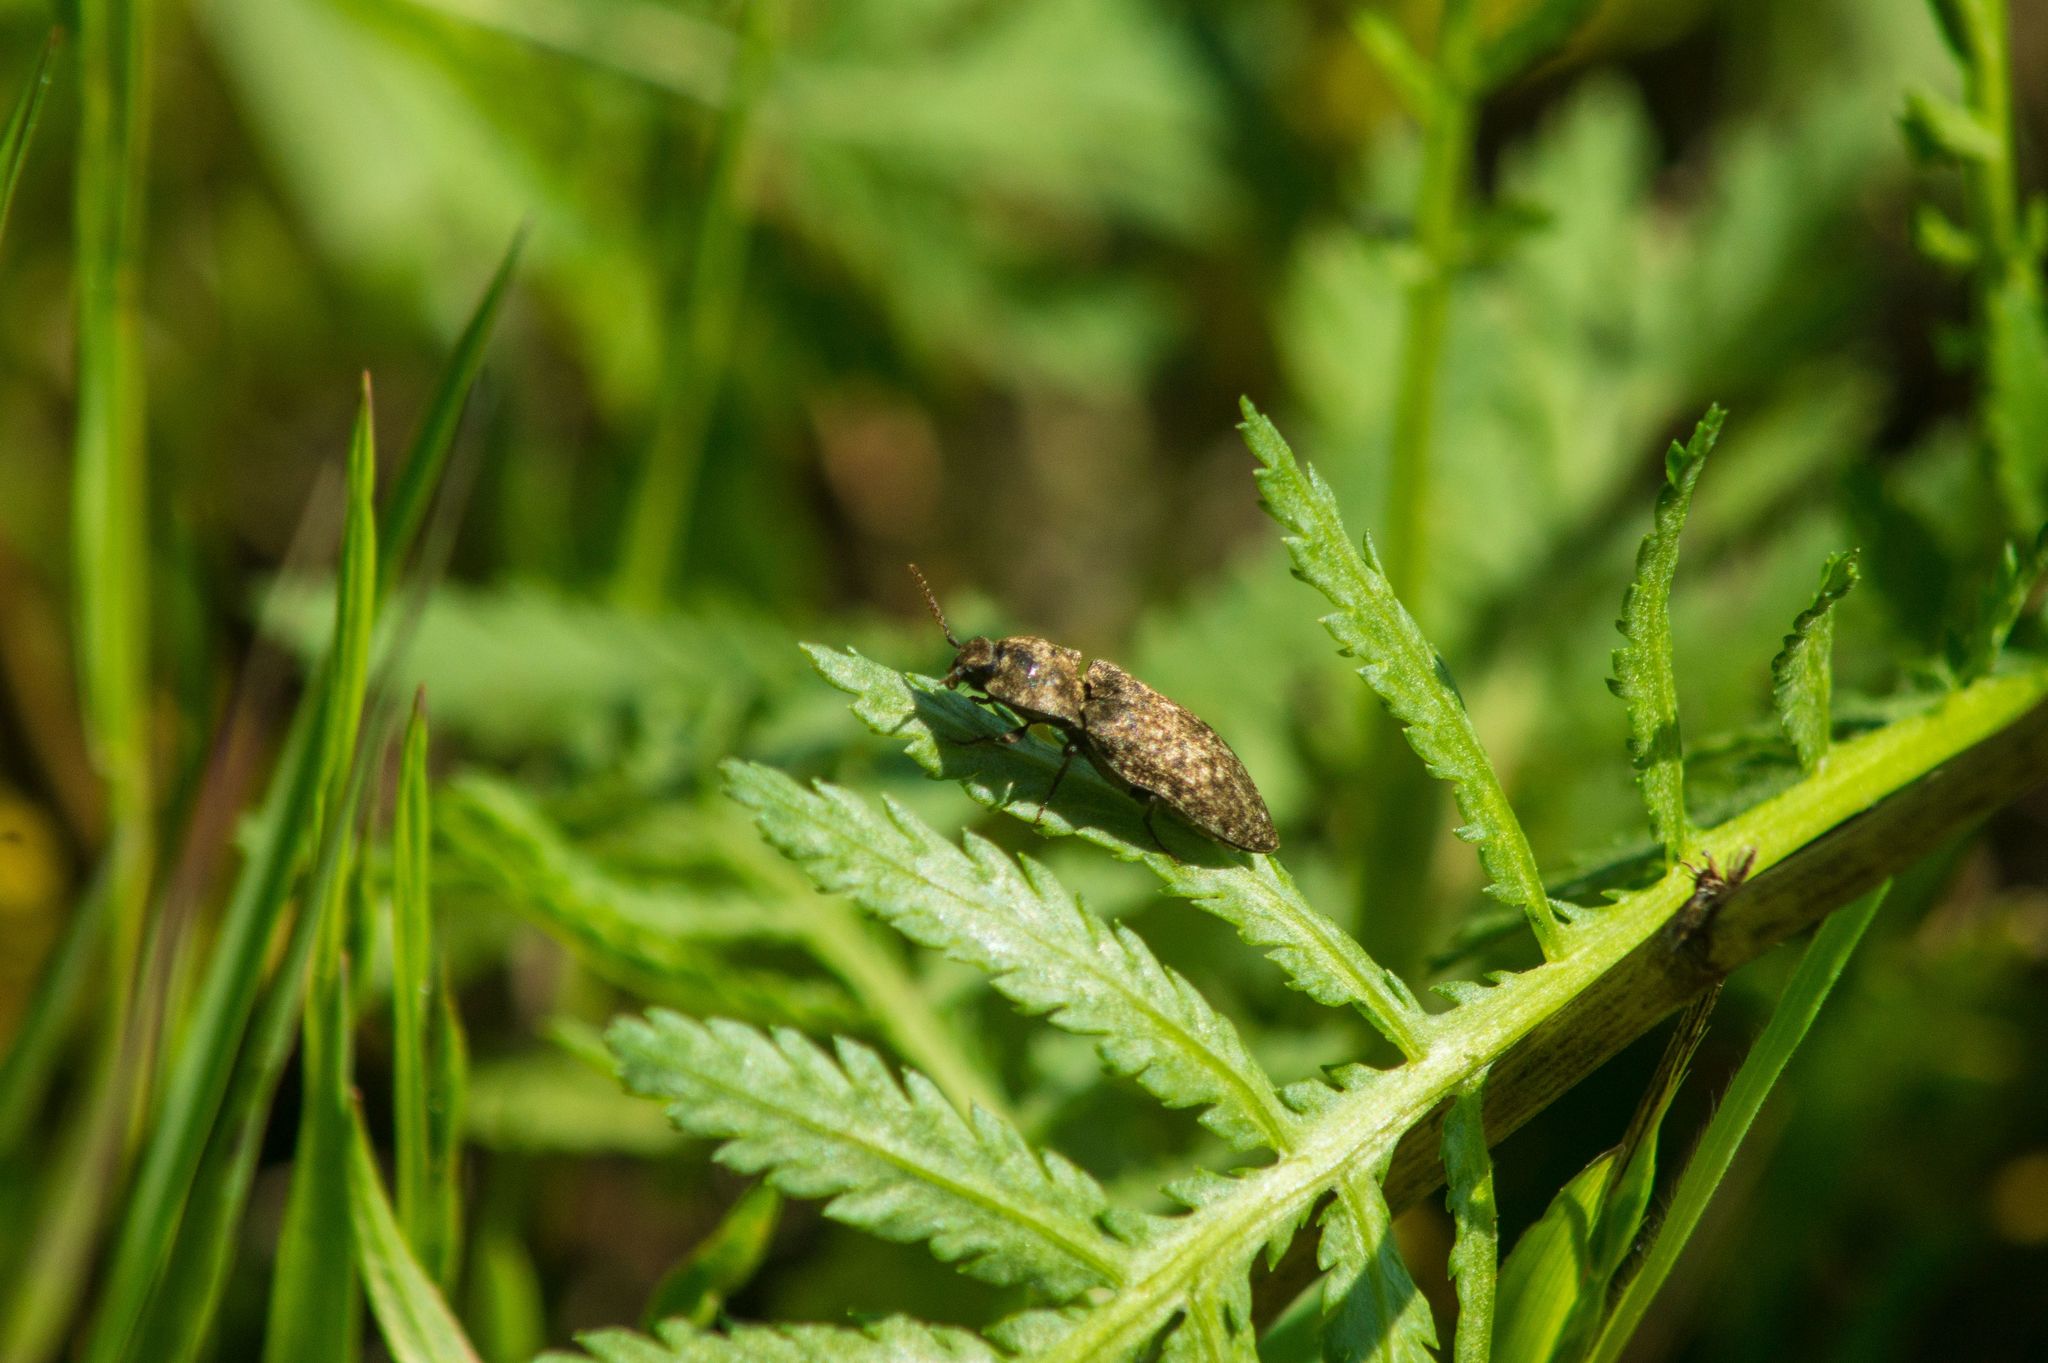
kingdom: Animalia
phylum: Arthropoda
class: Insecta
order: Coleoptera
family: Elateridae
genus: Agrypnus
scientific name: Agrypnus murinus
